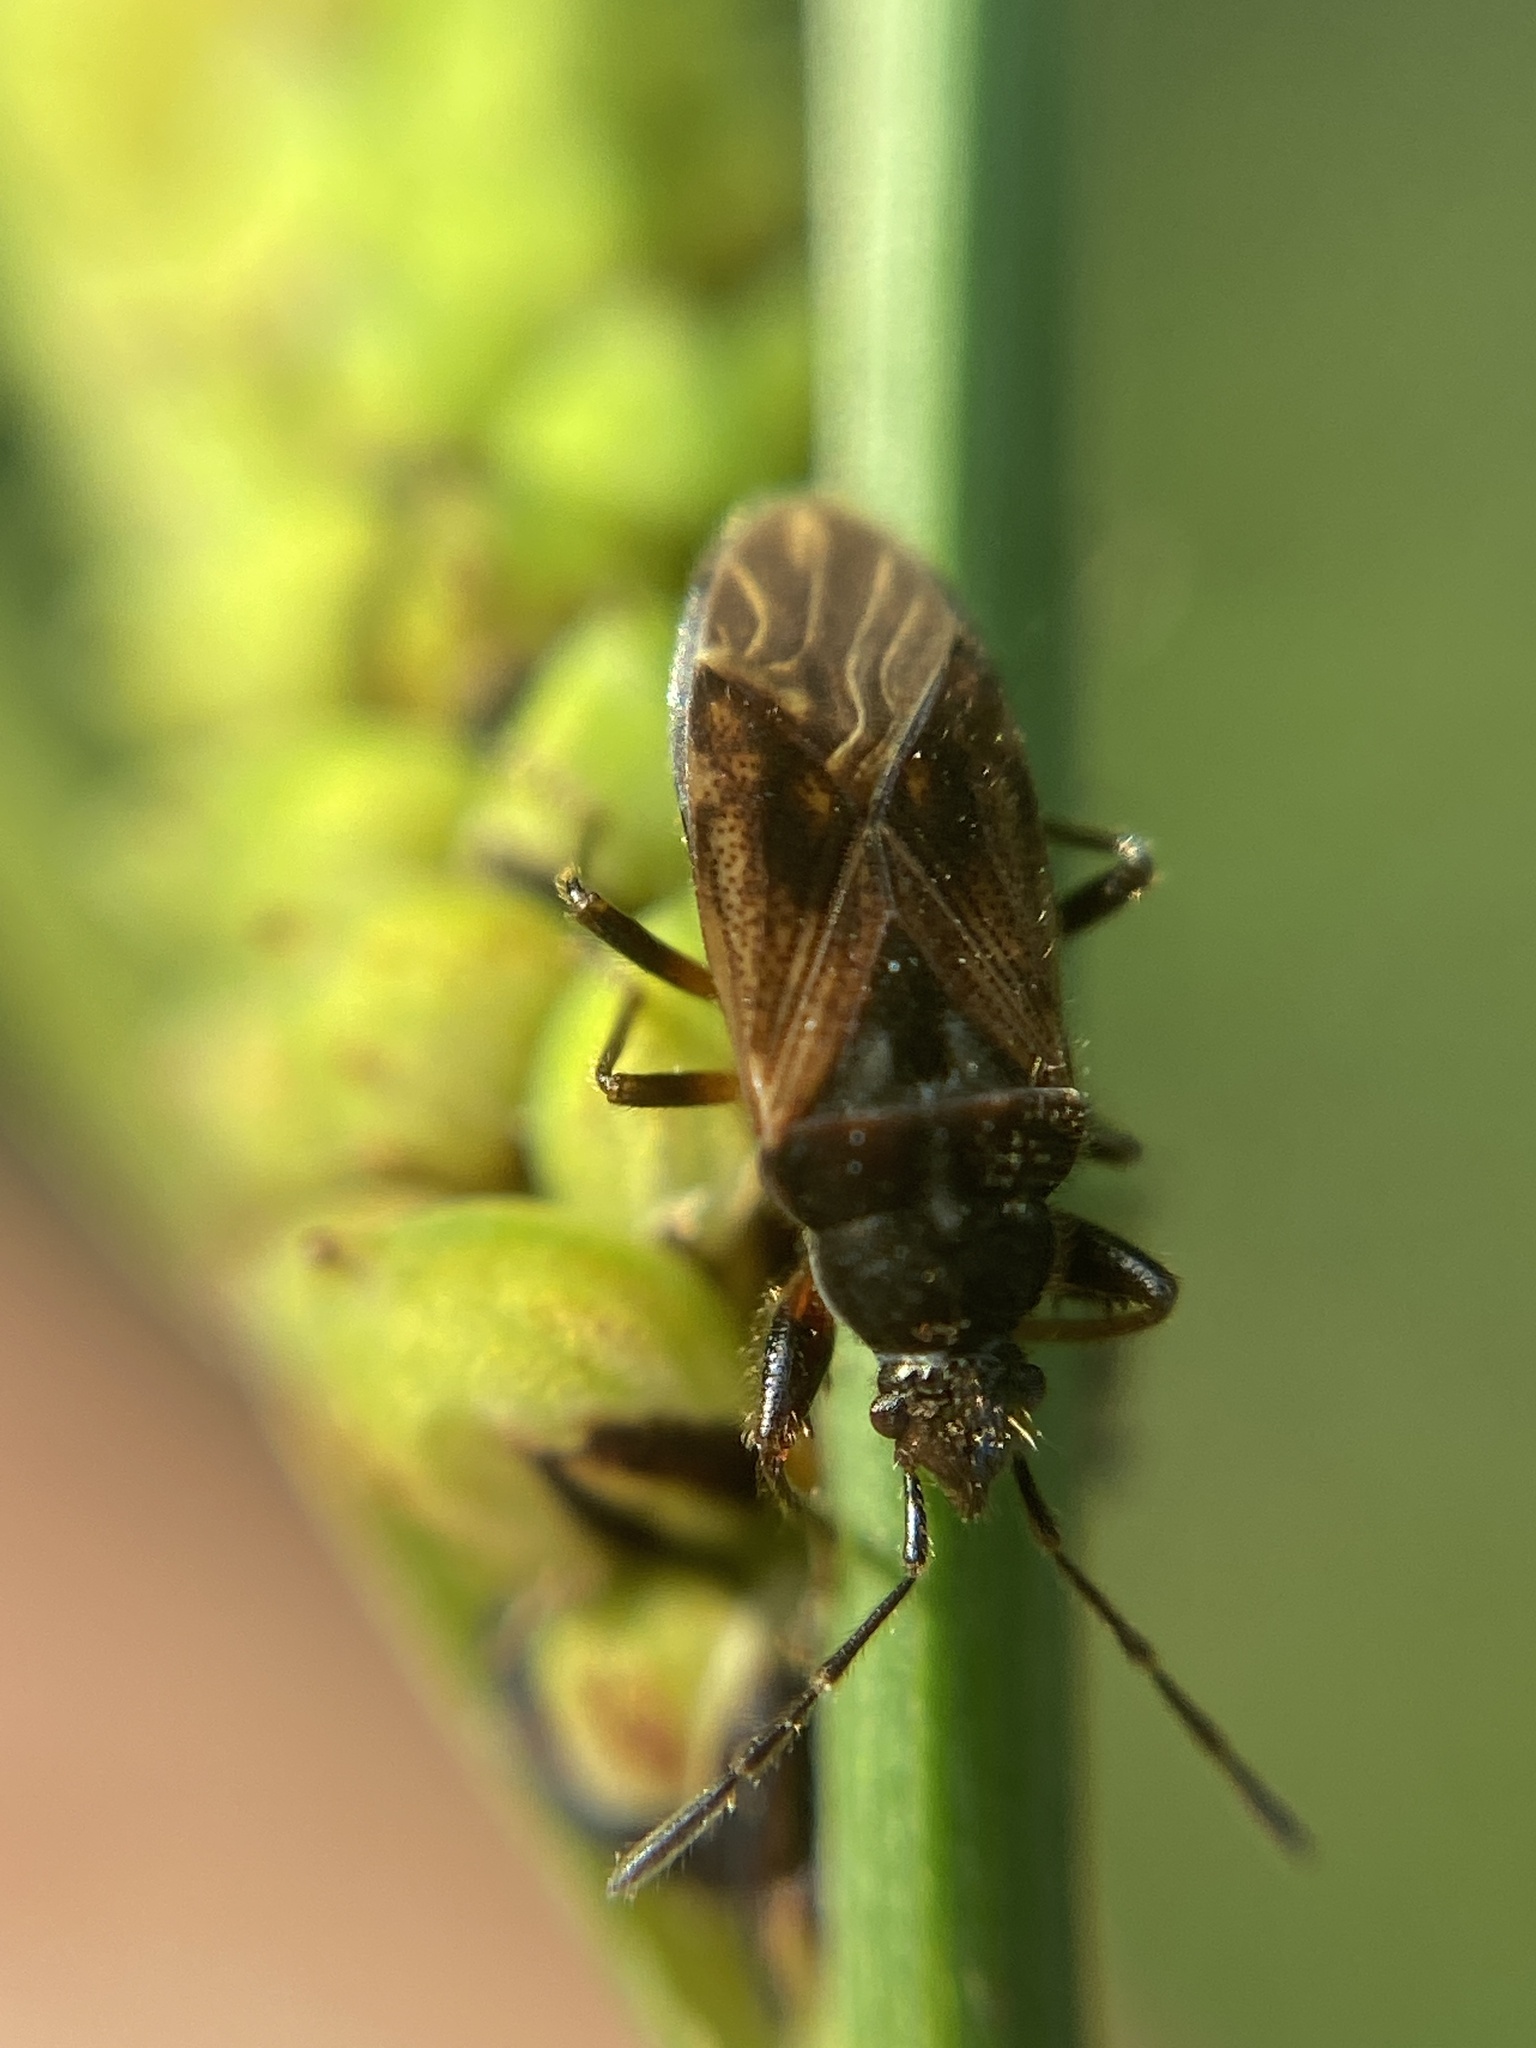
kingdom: Animalia
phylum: Arthropoda
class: Insecta
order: Hemiptera
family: Rhyparochromidae
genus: Pachybrachius
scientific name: Pachybrachius luridus
